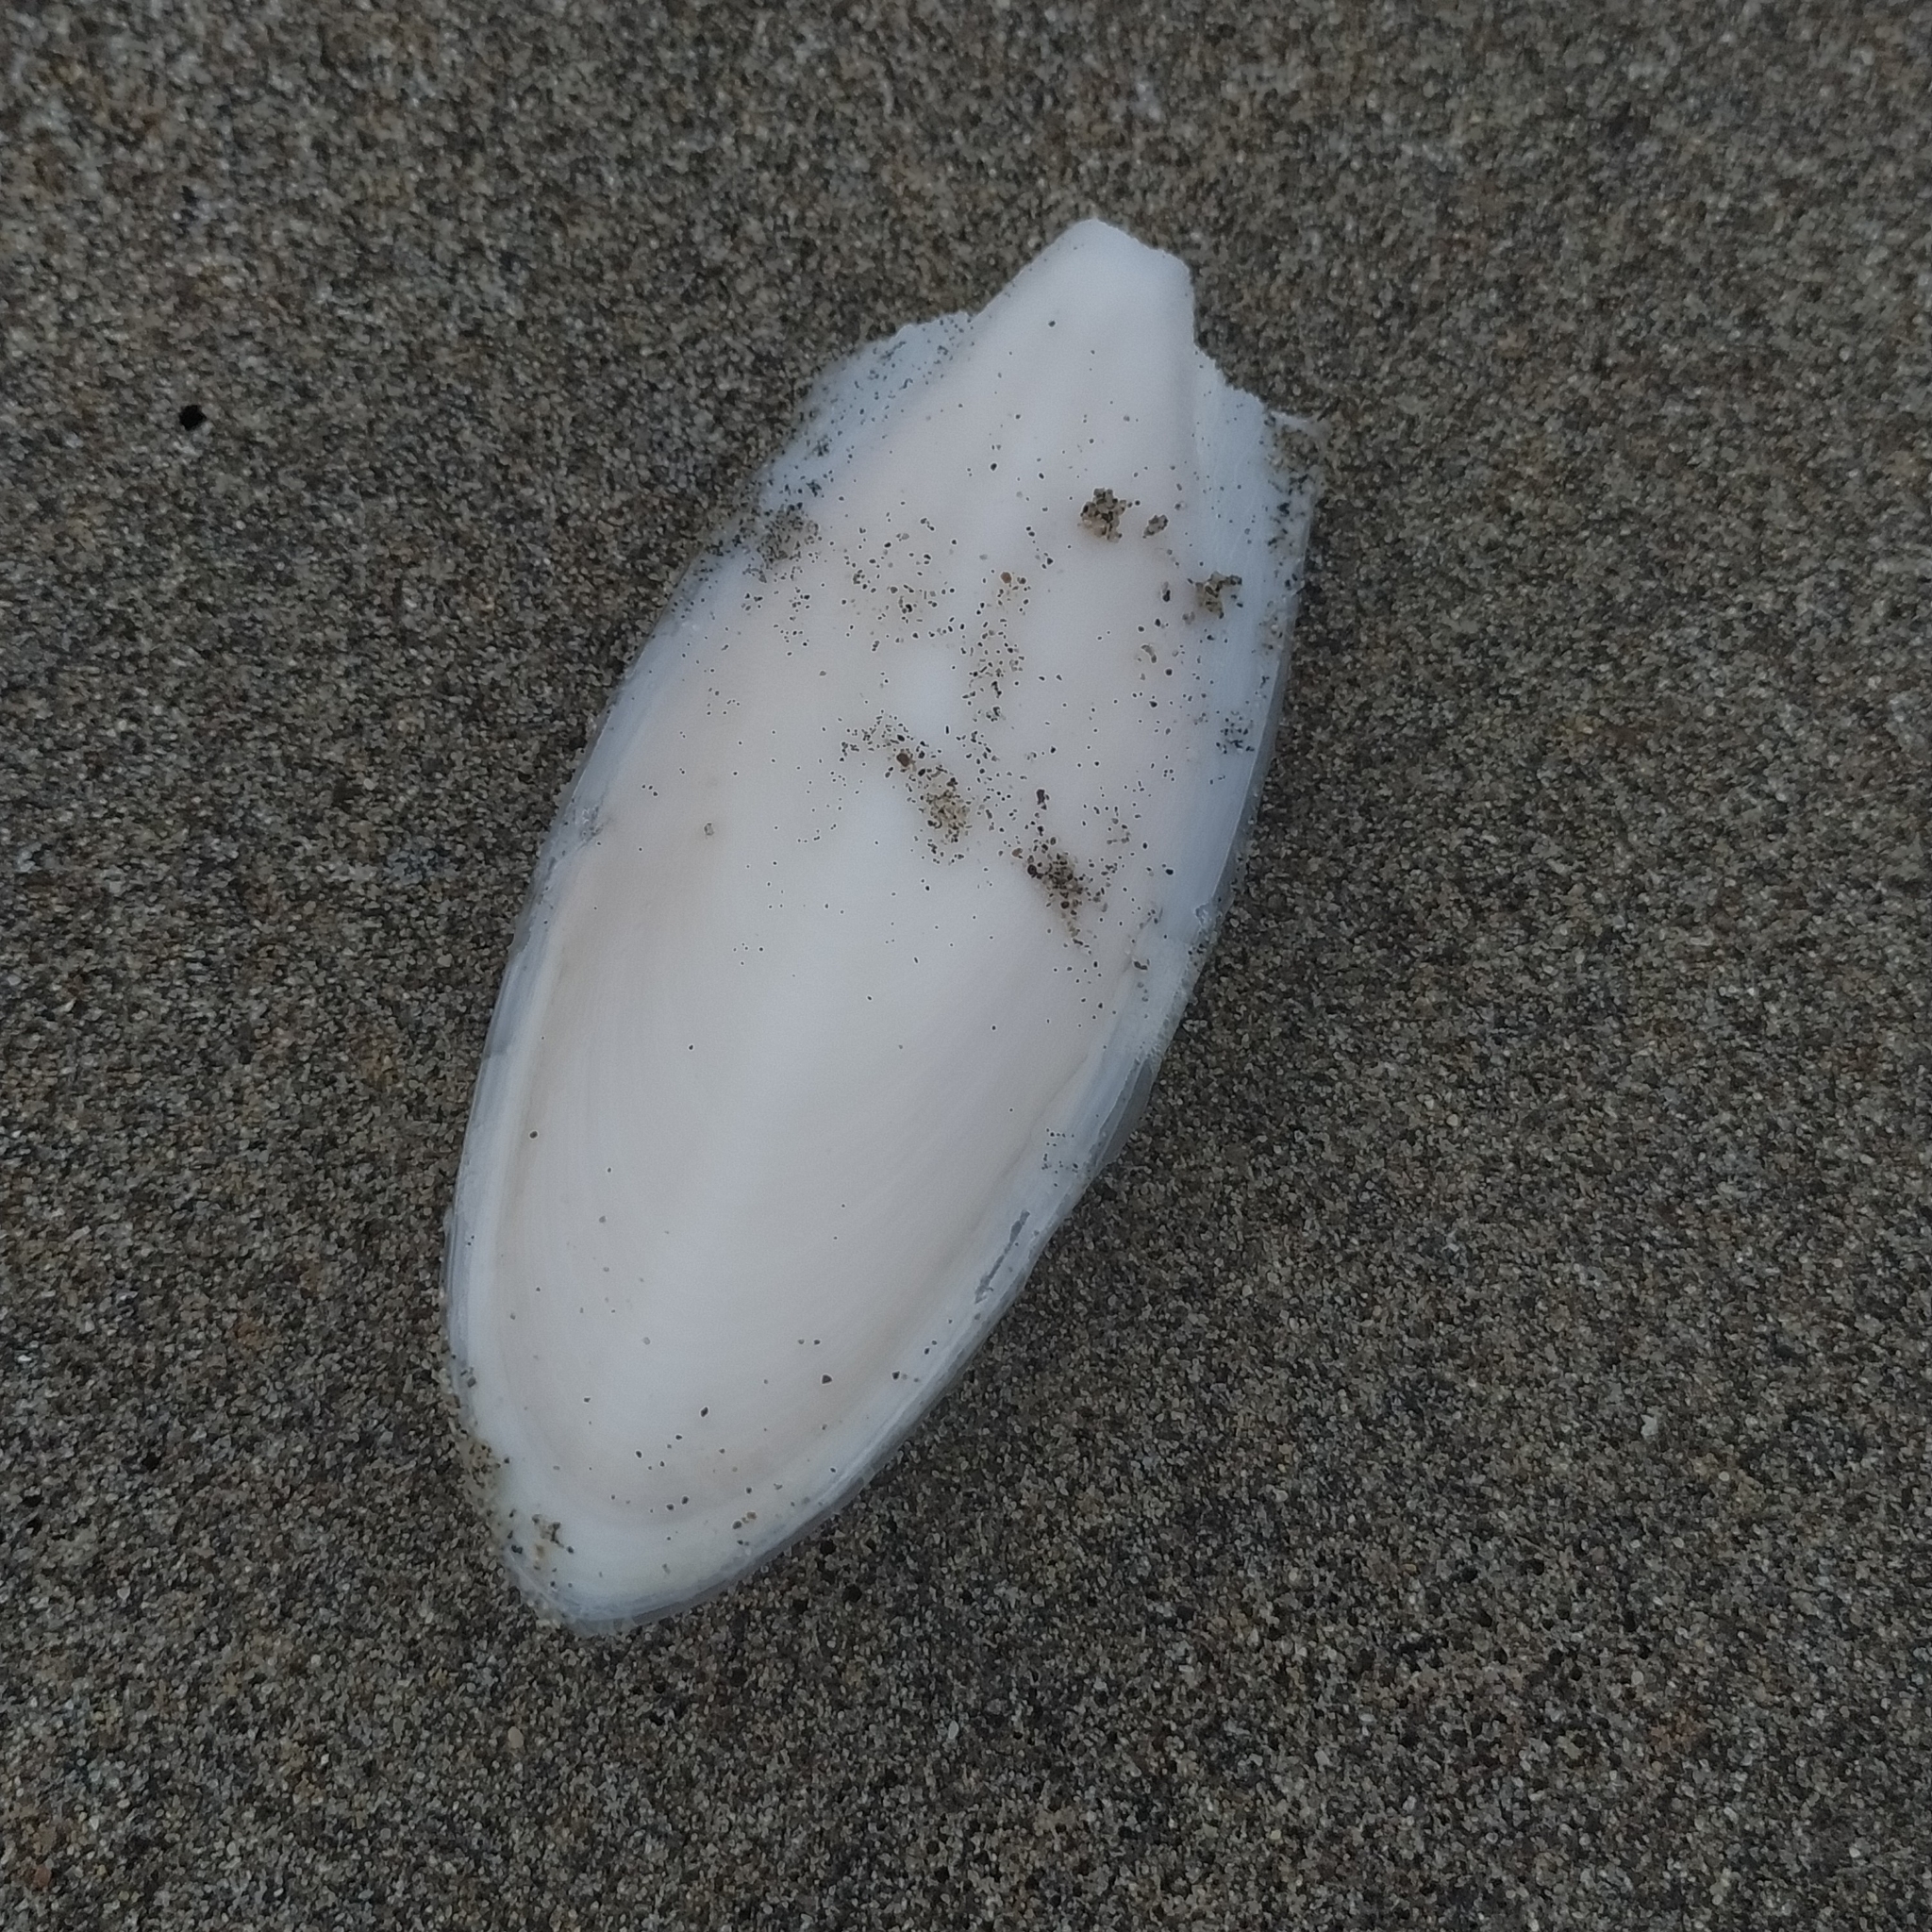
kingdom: Animalia
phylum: Mollusca
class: Cephalopoda
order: Sepiida
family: Sepiidae
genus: Sepia
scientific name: Sepia officinalis
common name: Common cuttlefish
